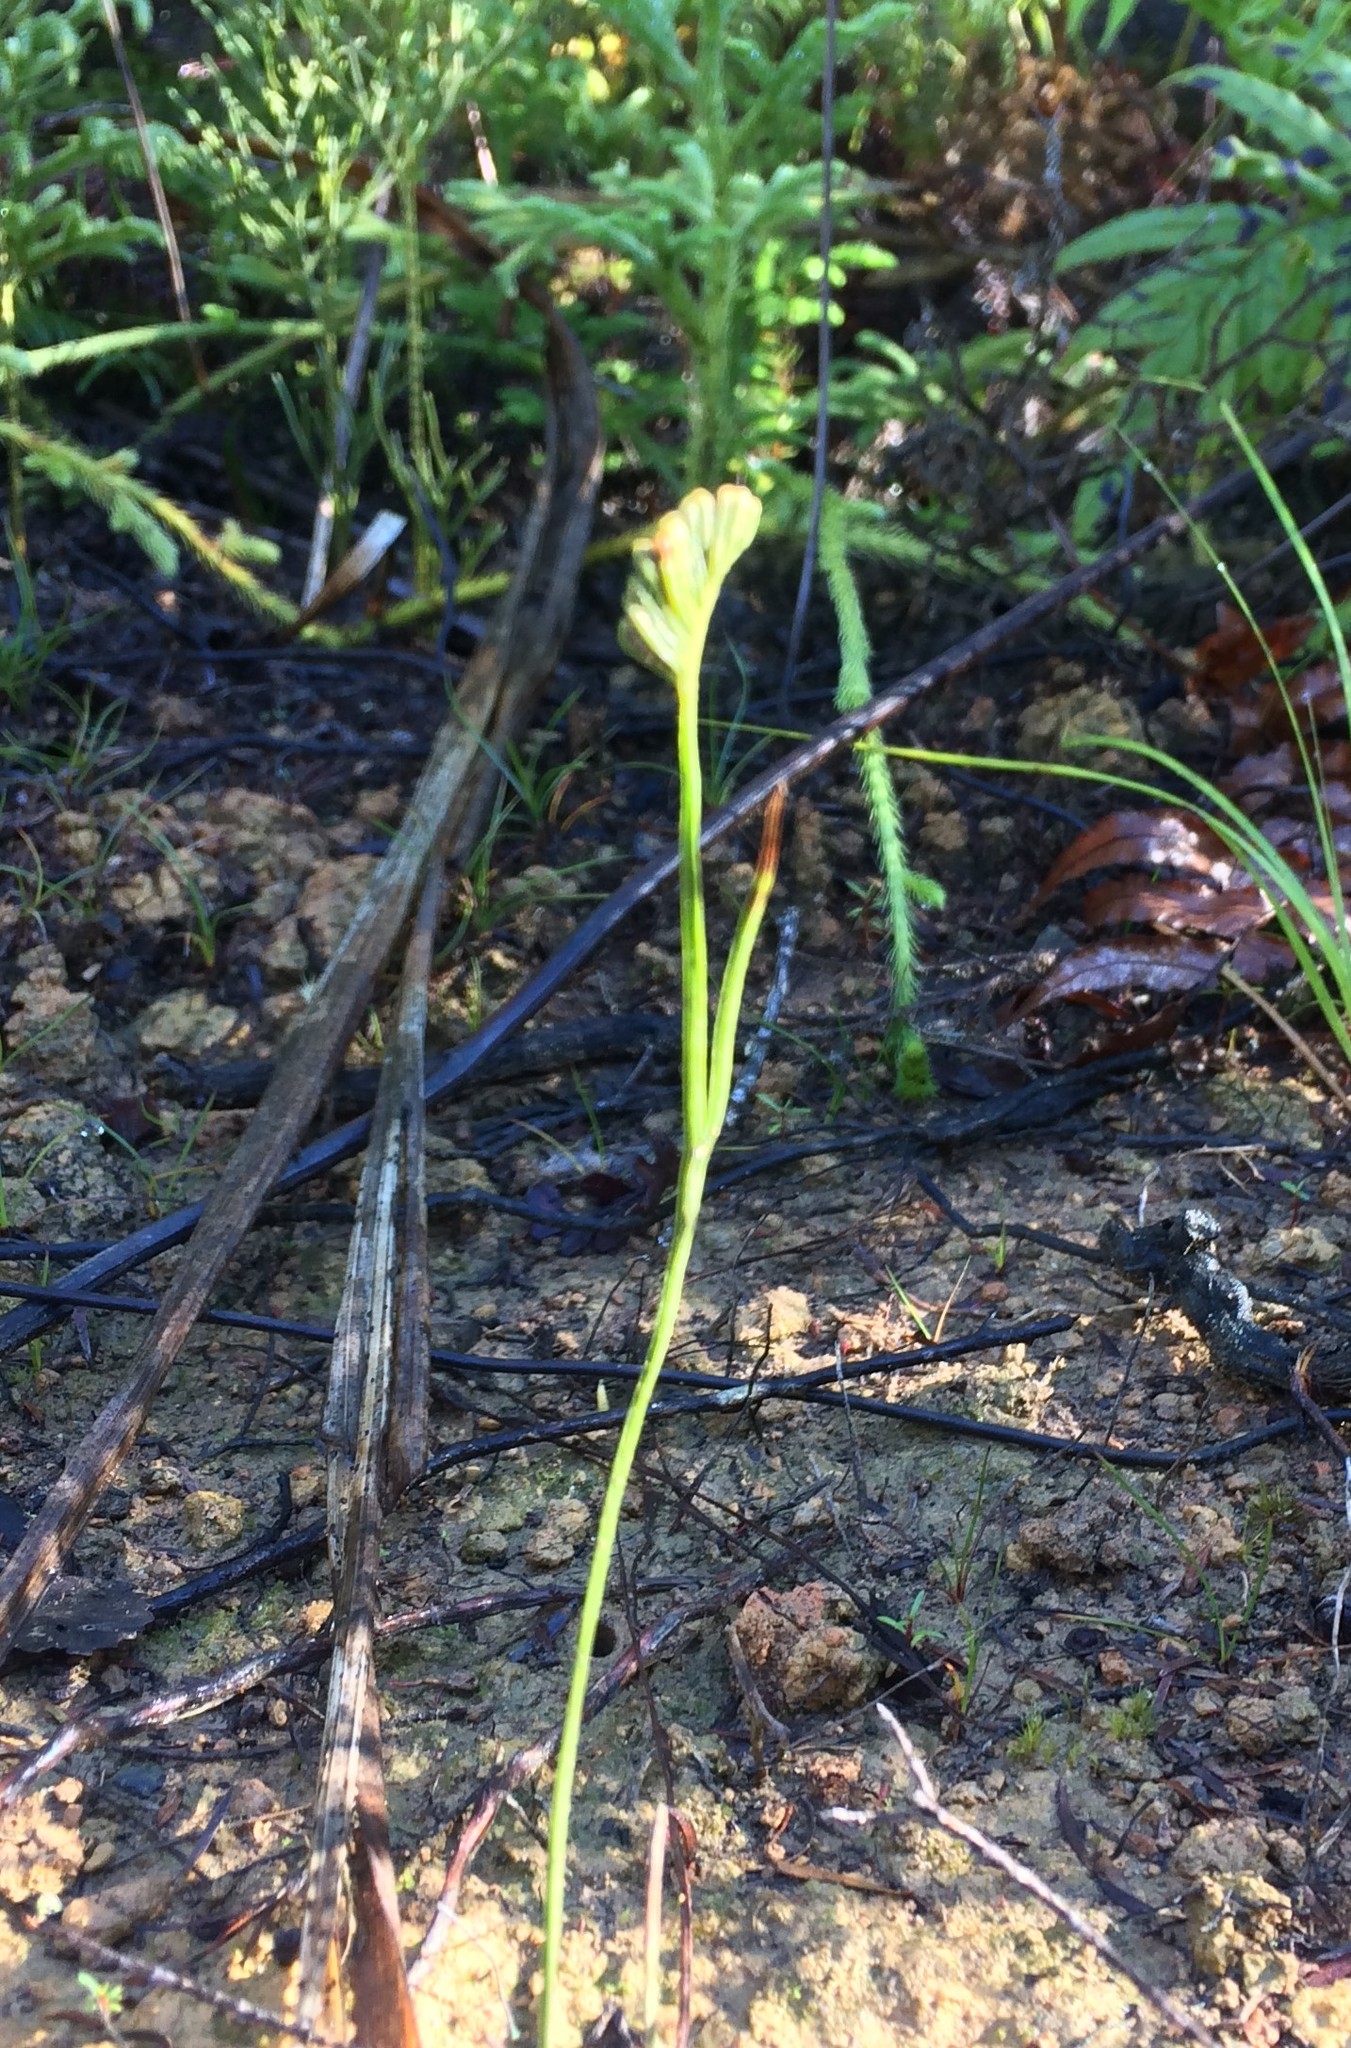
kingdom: Plantae
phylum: Tracheophyta
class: Polypodiopsida
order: Schizaeales
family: Schizaeaceae
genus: Schizaea
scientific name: Schizaea bifida
